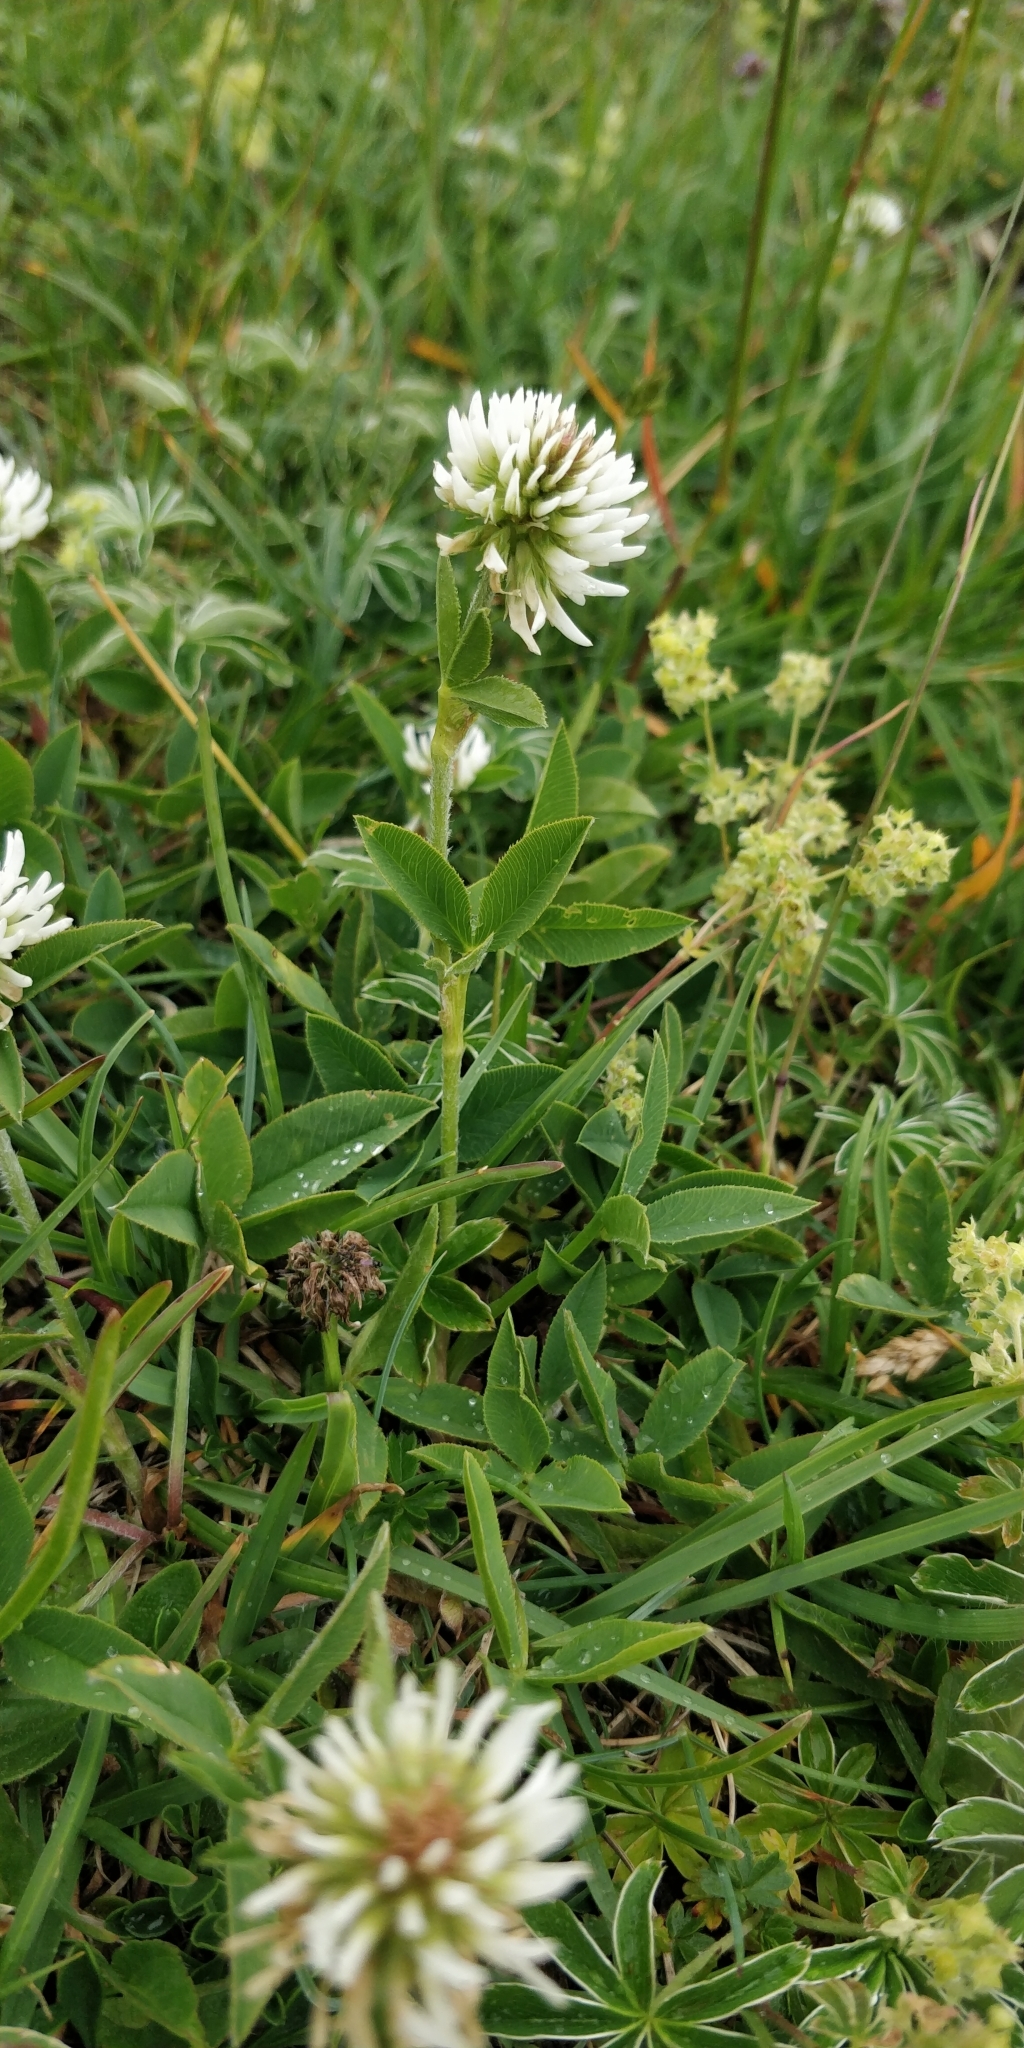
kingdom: Plantae
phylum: Tracheophyta
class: Magnoliopsida
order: Fabales
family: Fabaceae
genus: Trifolium
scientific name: Trifolium montanum
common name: Mountain clover
